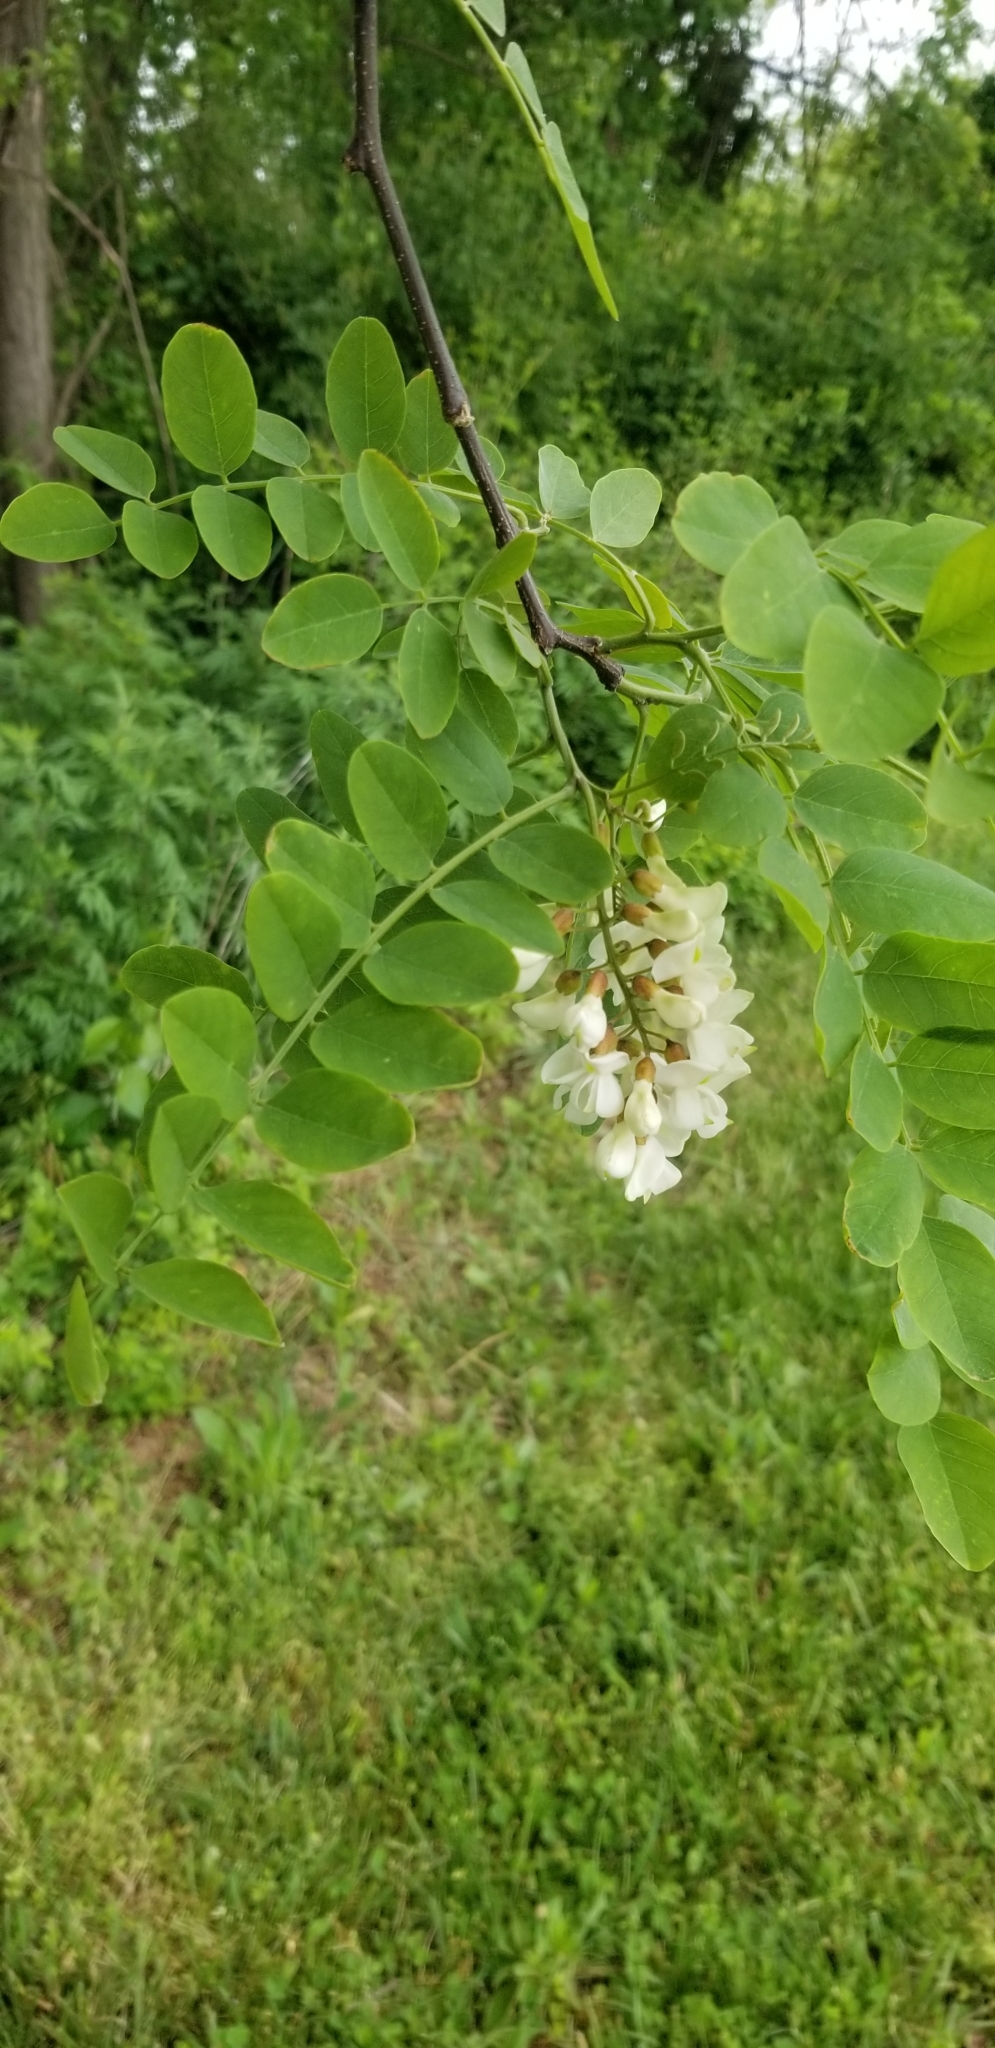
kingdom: Plantae
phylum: Tracheophyta
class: Magnoliopsida
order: Fabales
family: Fabaceae
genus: Robinia
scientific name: Robinia pseudoacacia
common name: Black locust
